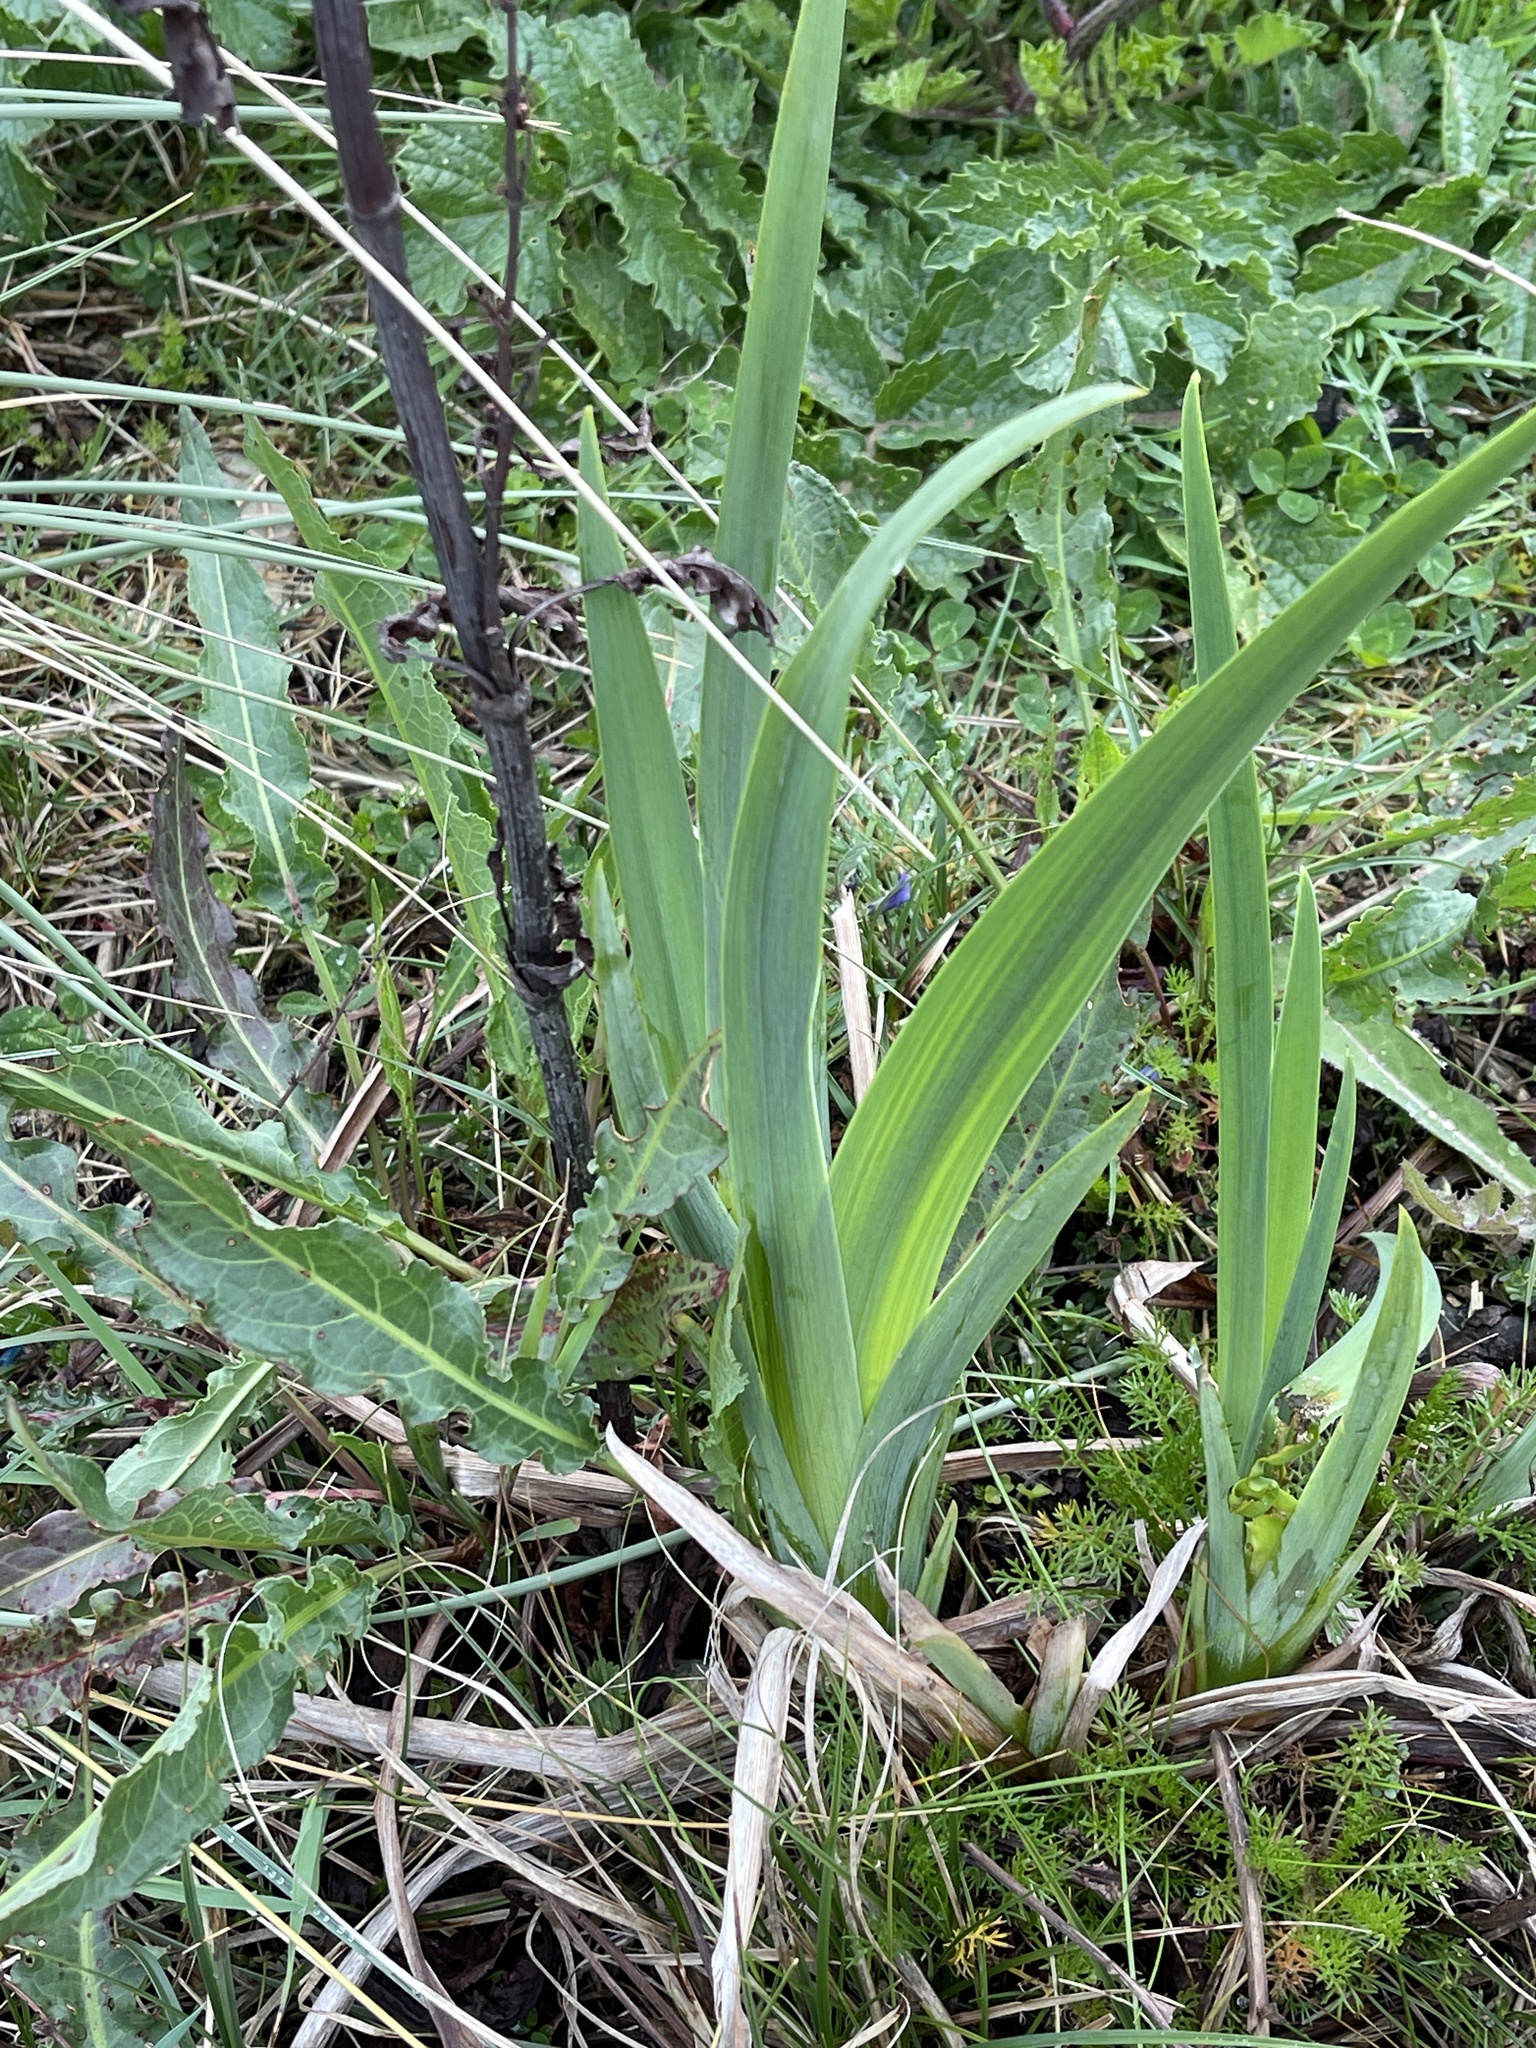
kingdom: Plantae
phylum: Tracheophyta
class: Liliopsida
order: Asparagales
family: Iridaceae
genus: Iris
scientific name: Iris pseudacorus
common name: Yellow flag
